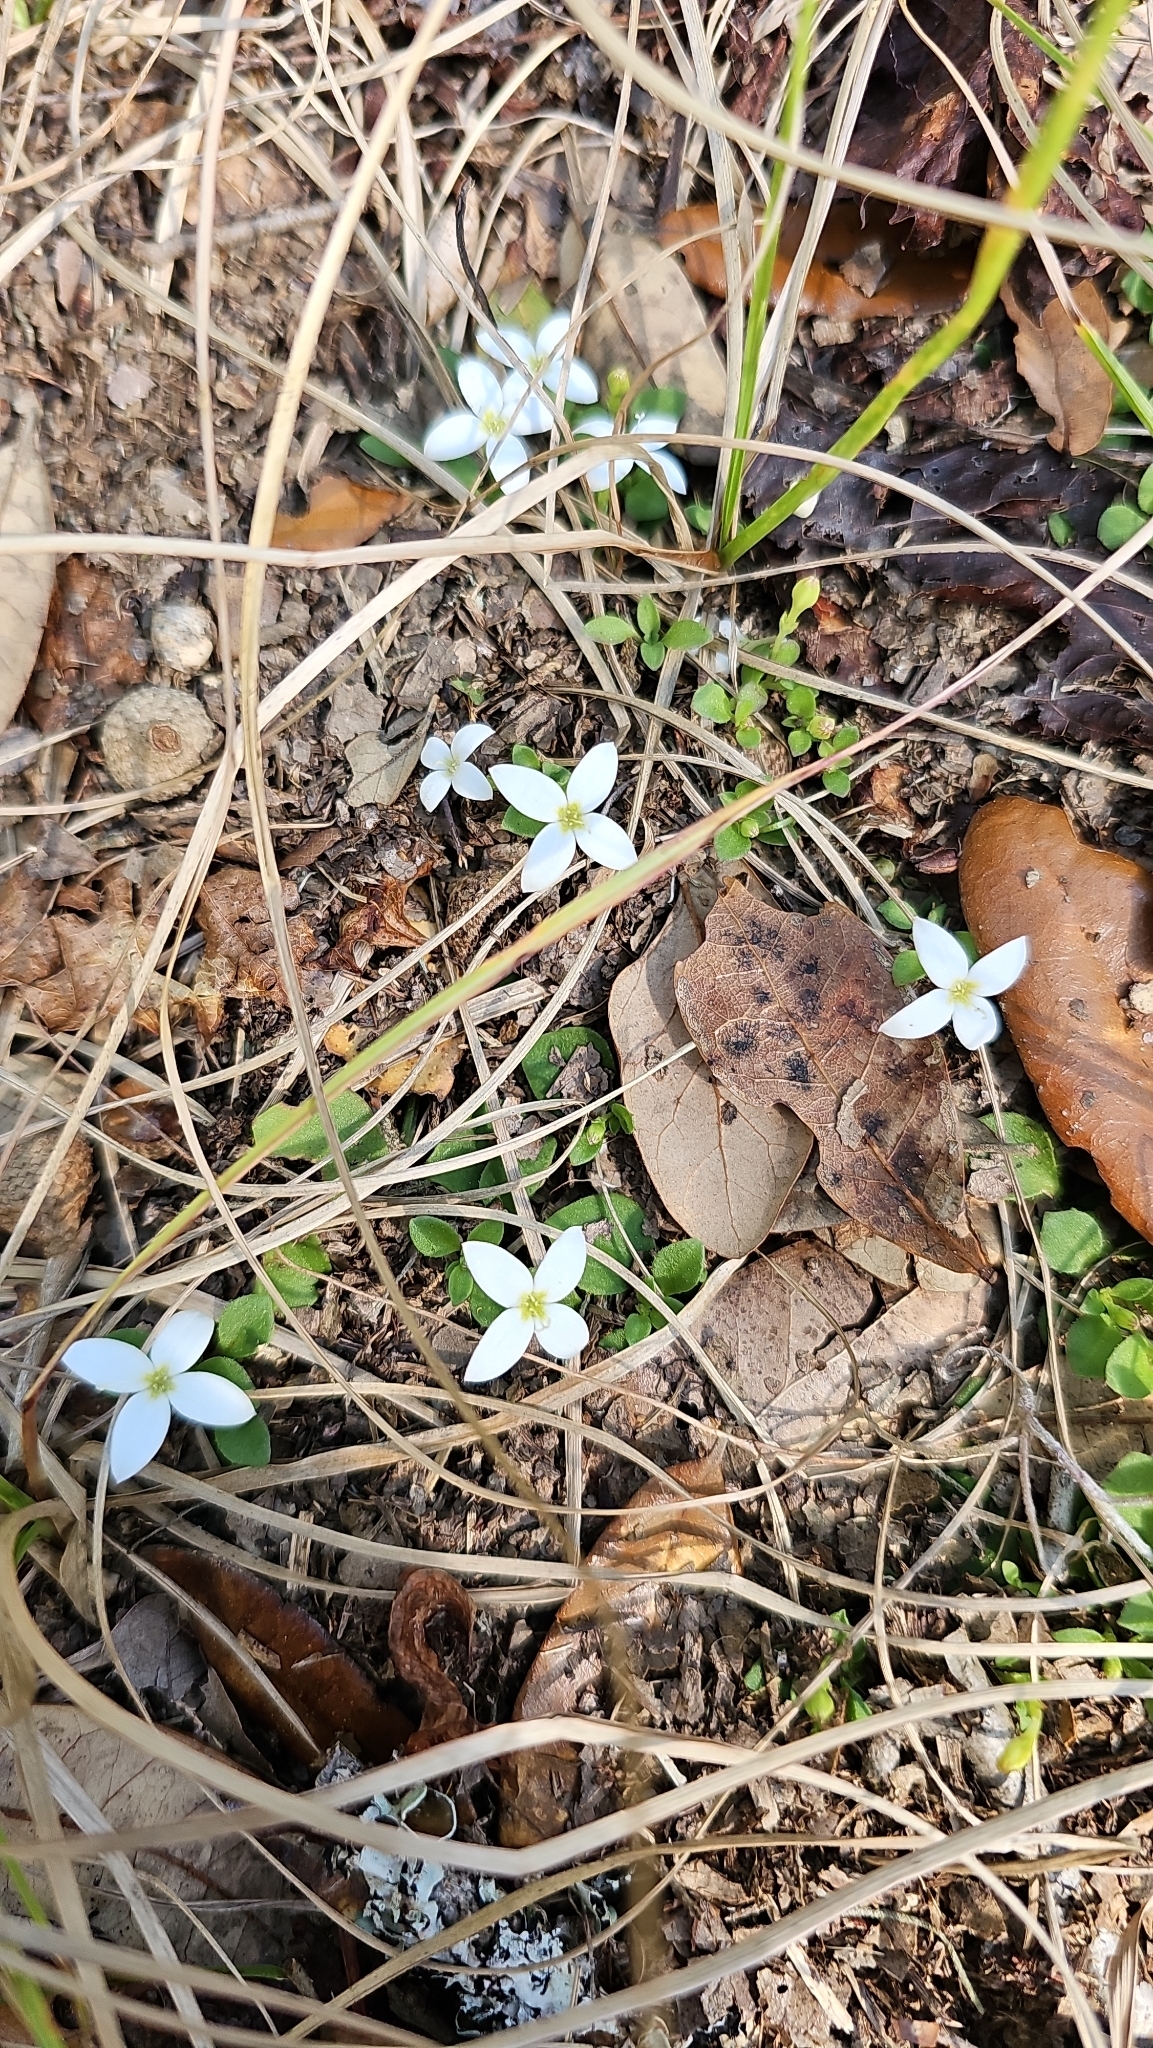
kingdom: Plantae
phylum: Tracheophyta
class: Magnoliopsida
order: Gentianales
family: Rubiaceae
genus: Houstonia
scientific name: Houstonia procumbens
